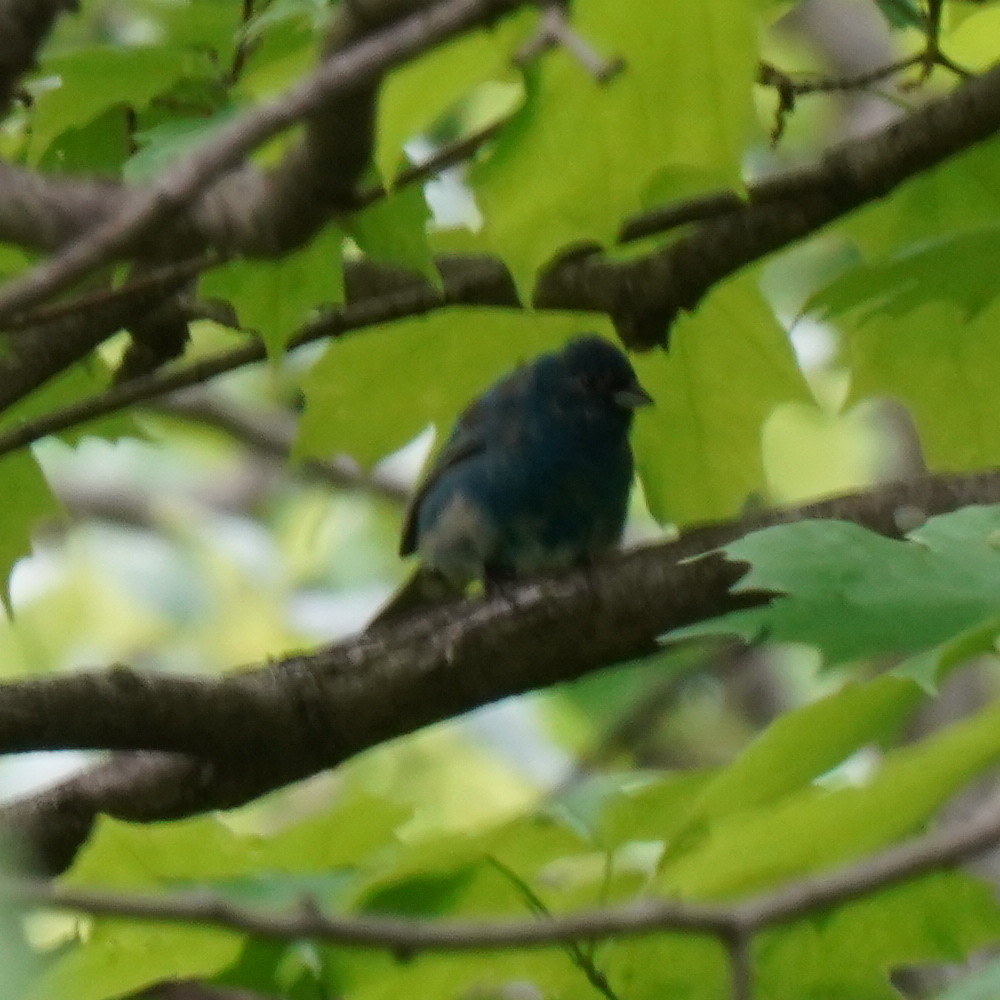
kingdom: Animalia
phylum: Chordata
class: Aves
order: Passeriformes
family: Cardinalidae
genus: Passerina
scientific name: Passerina cyanea
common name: Indigo bunting
